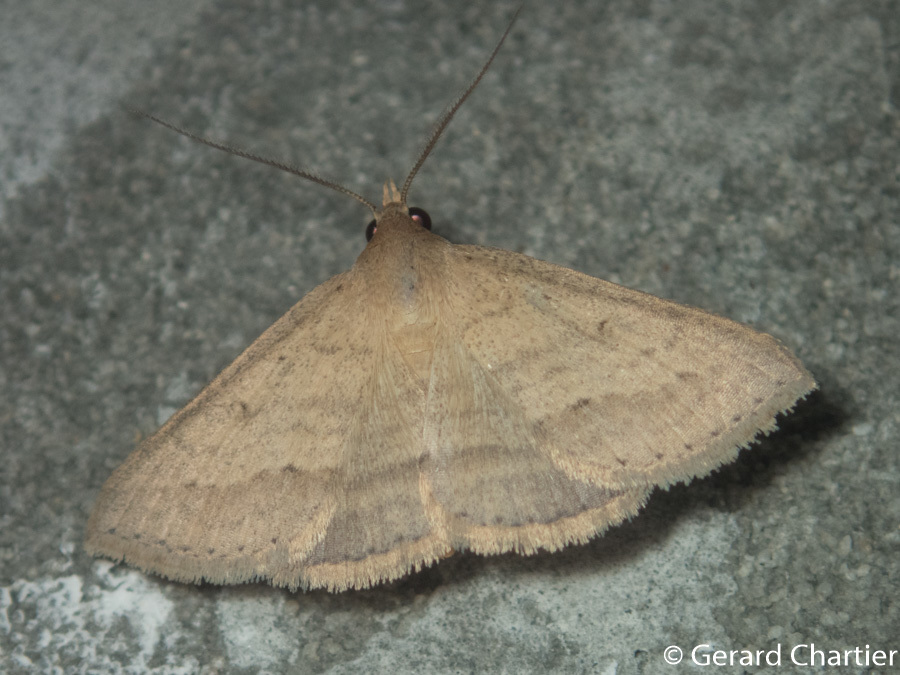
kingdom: Animalia
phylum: Arthropoda
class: Insecta
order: Lepidoptera
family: Erebidae
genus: Gesonia
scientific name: Gesonia obeditalis
